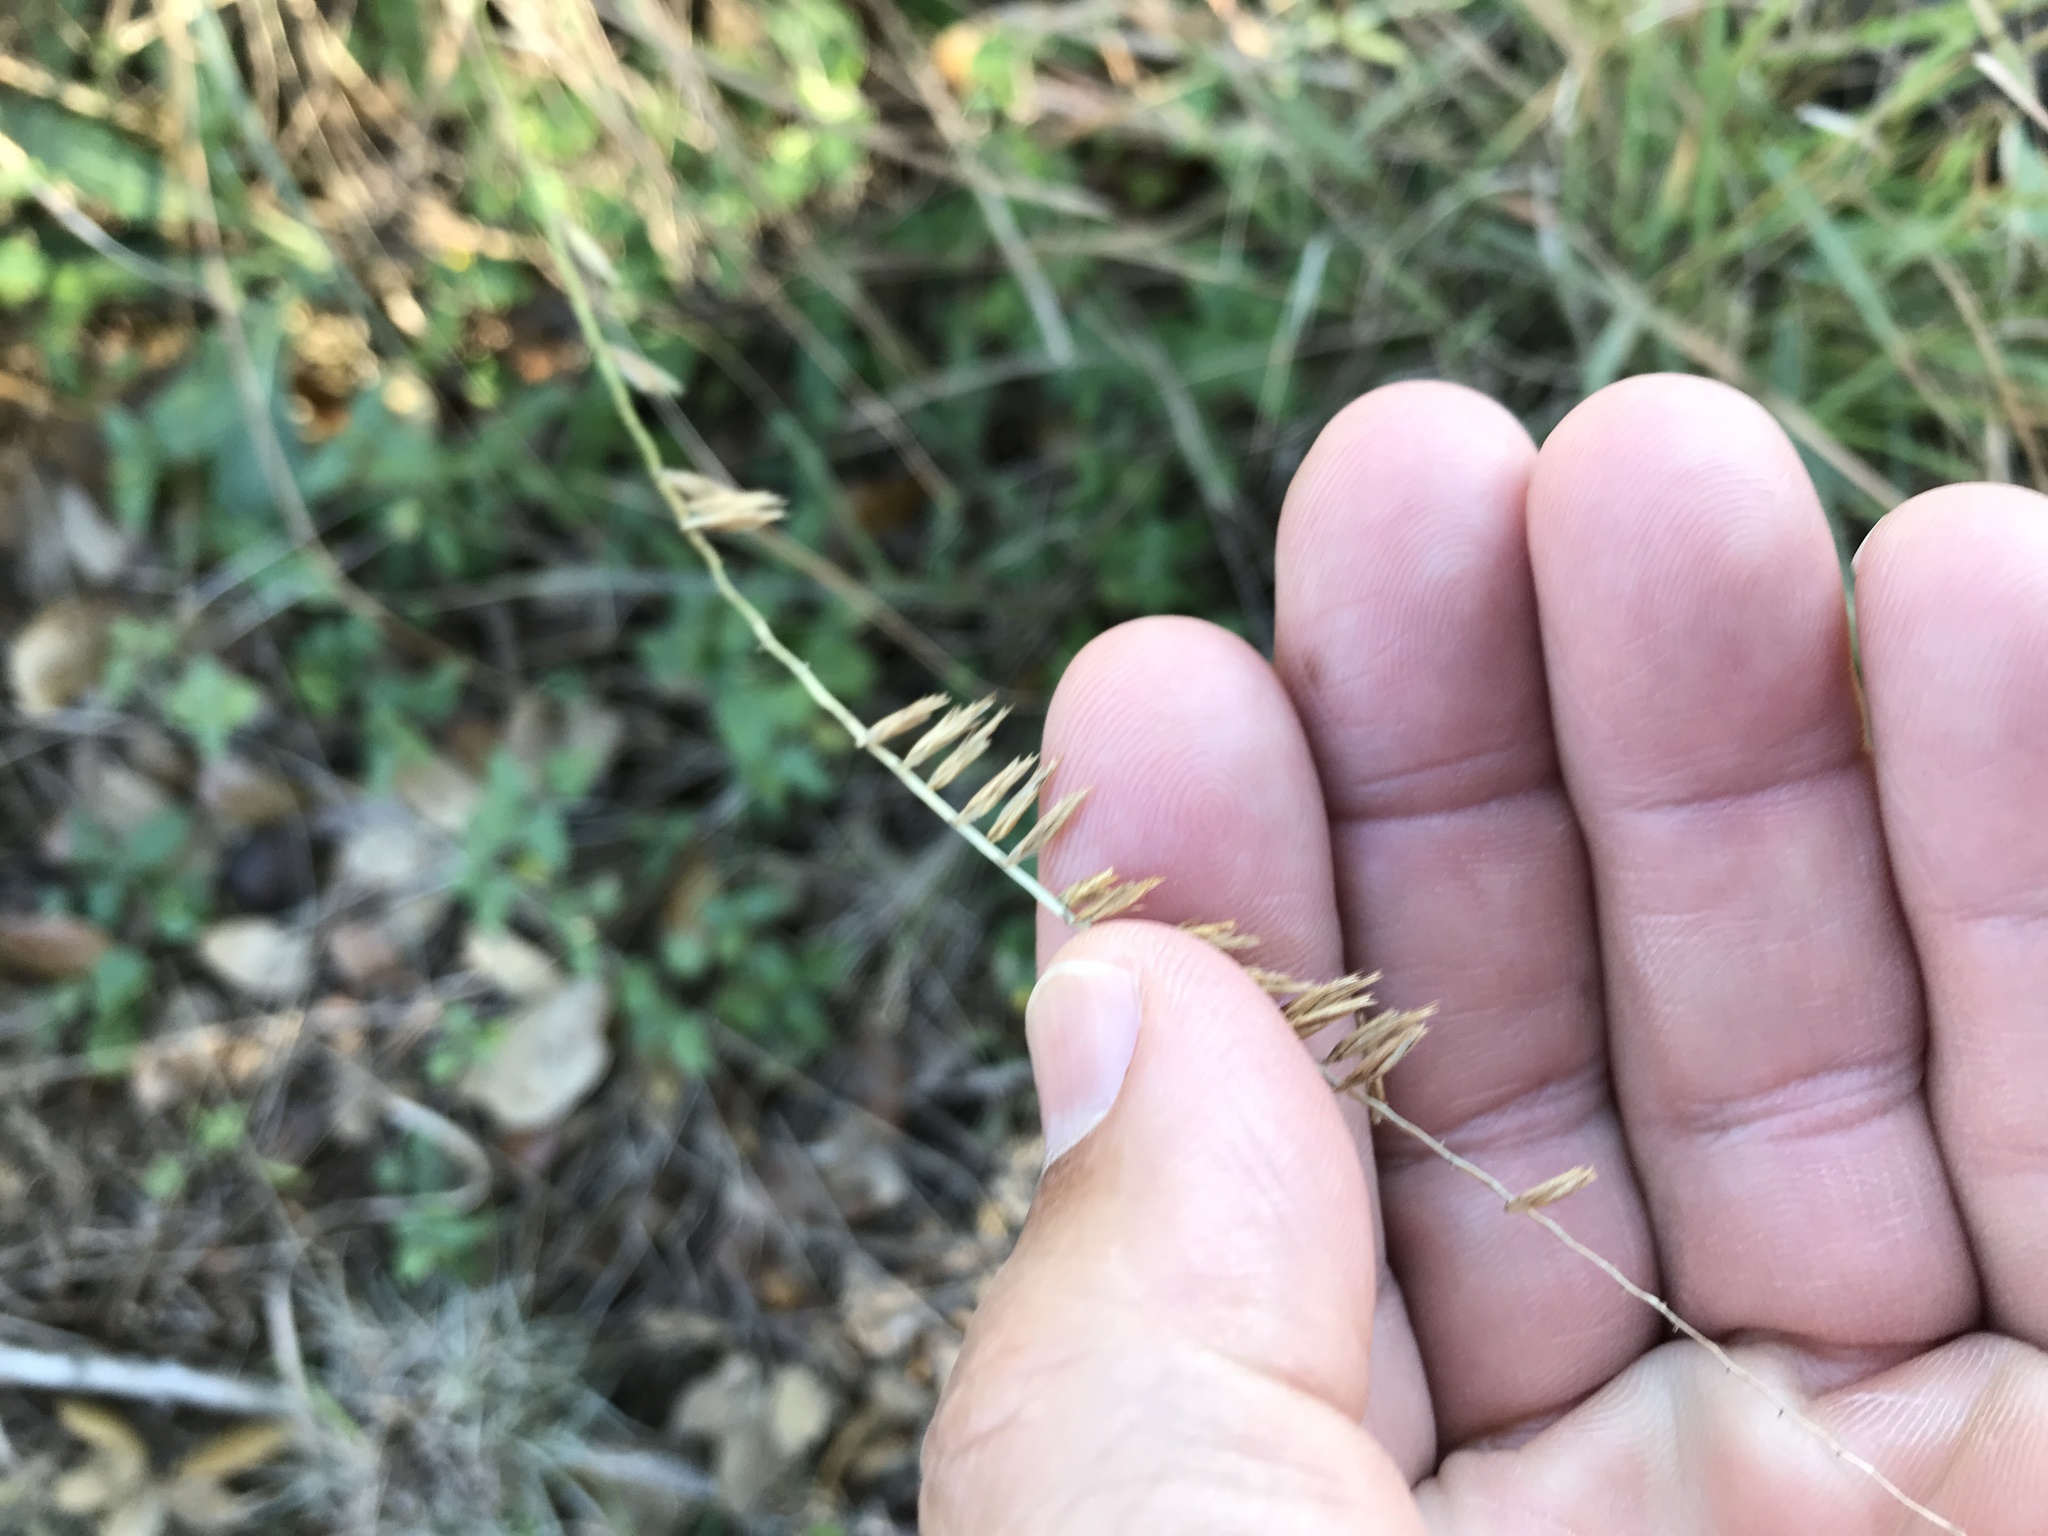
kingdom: Plantae
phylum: Tracheophyta
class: Liliopsida
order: Poales
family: Poaceae
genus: Bouteloua
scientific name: Bouteloua curtipendula
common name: Side-oats grama
